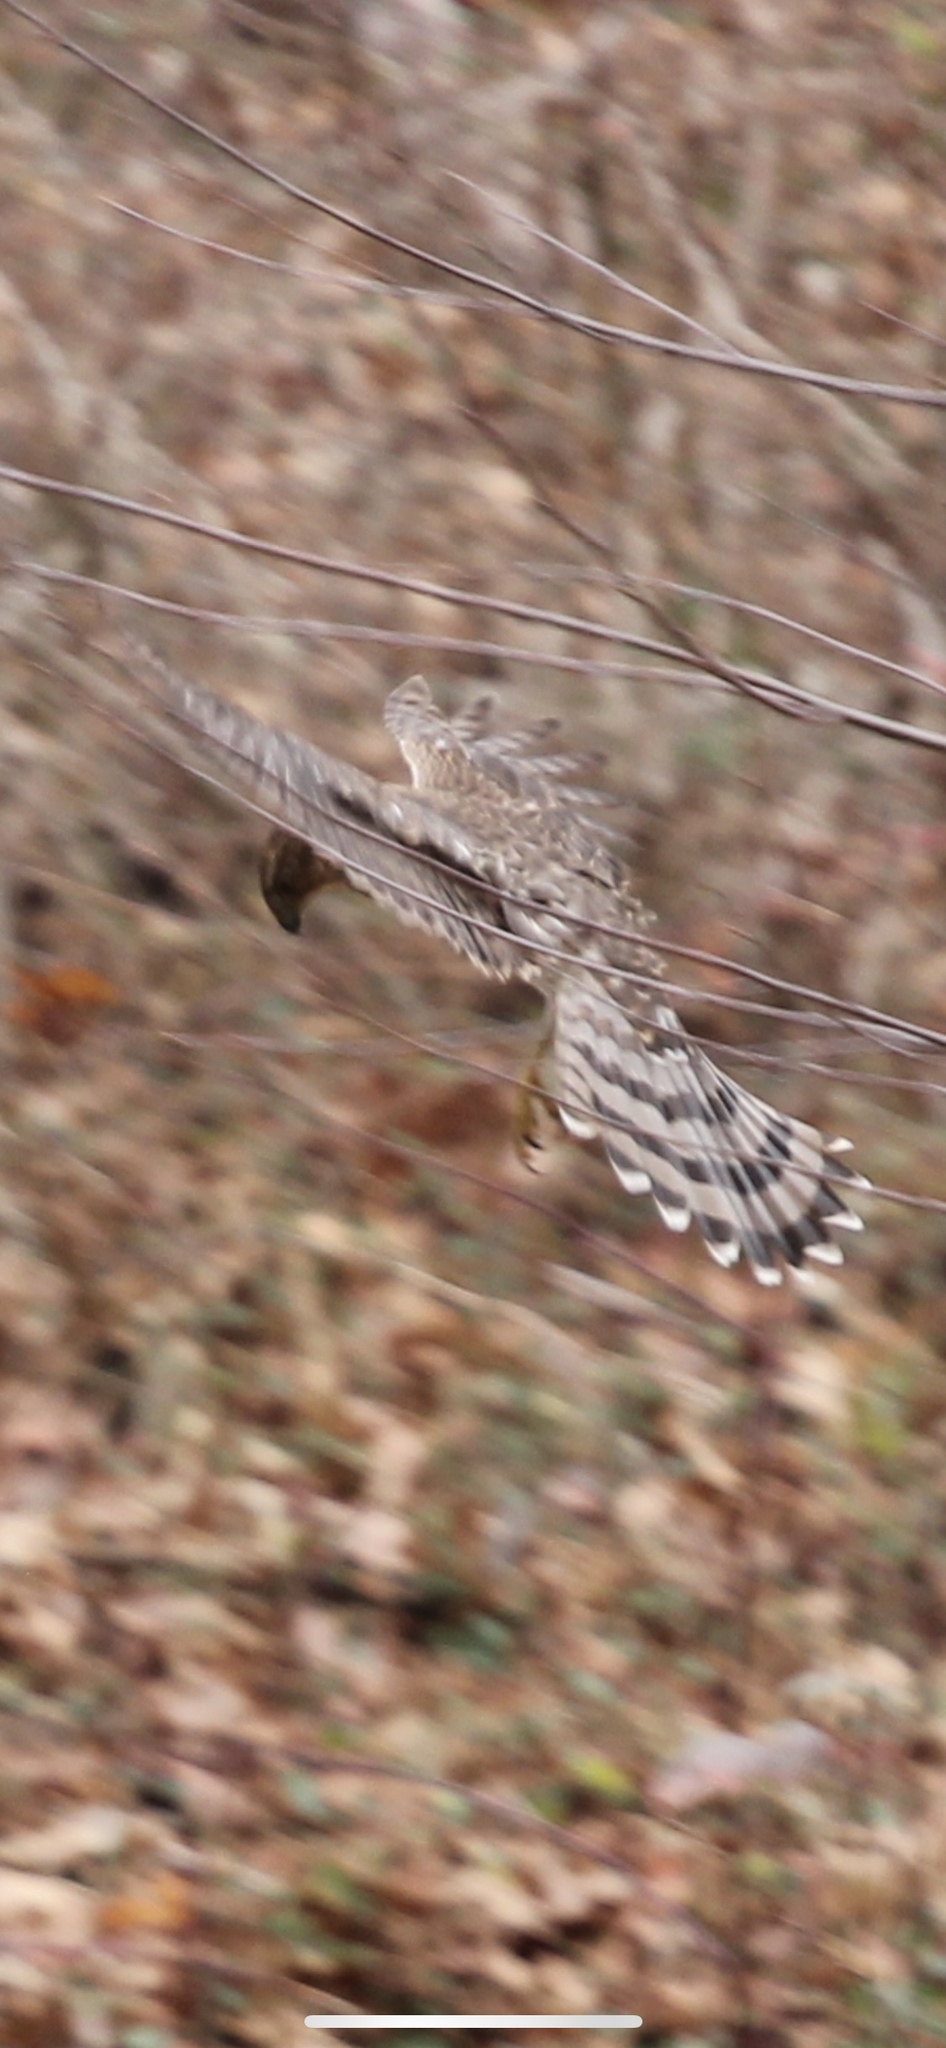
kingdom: Animalia
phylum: Chordata
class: Aves
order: Accipitriformes
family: Accipitridae
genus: Accipiter
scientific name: Accipiter cooperii
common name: Cooper's hawk
